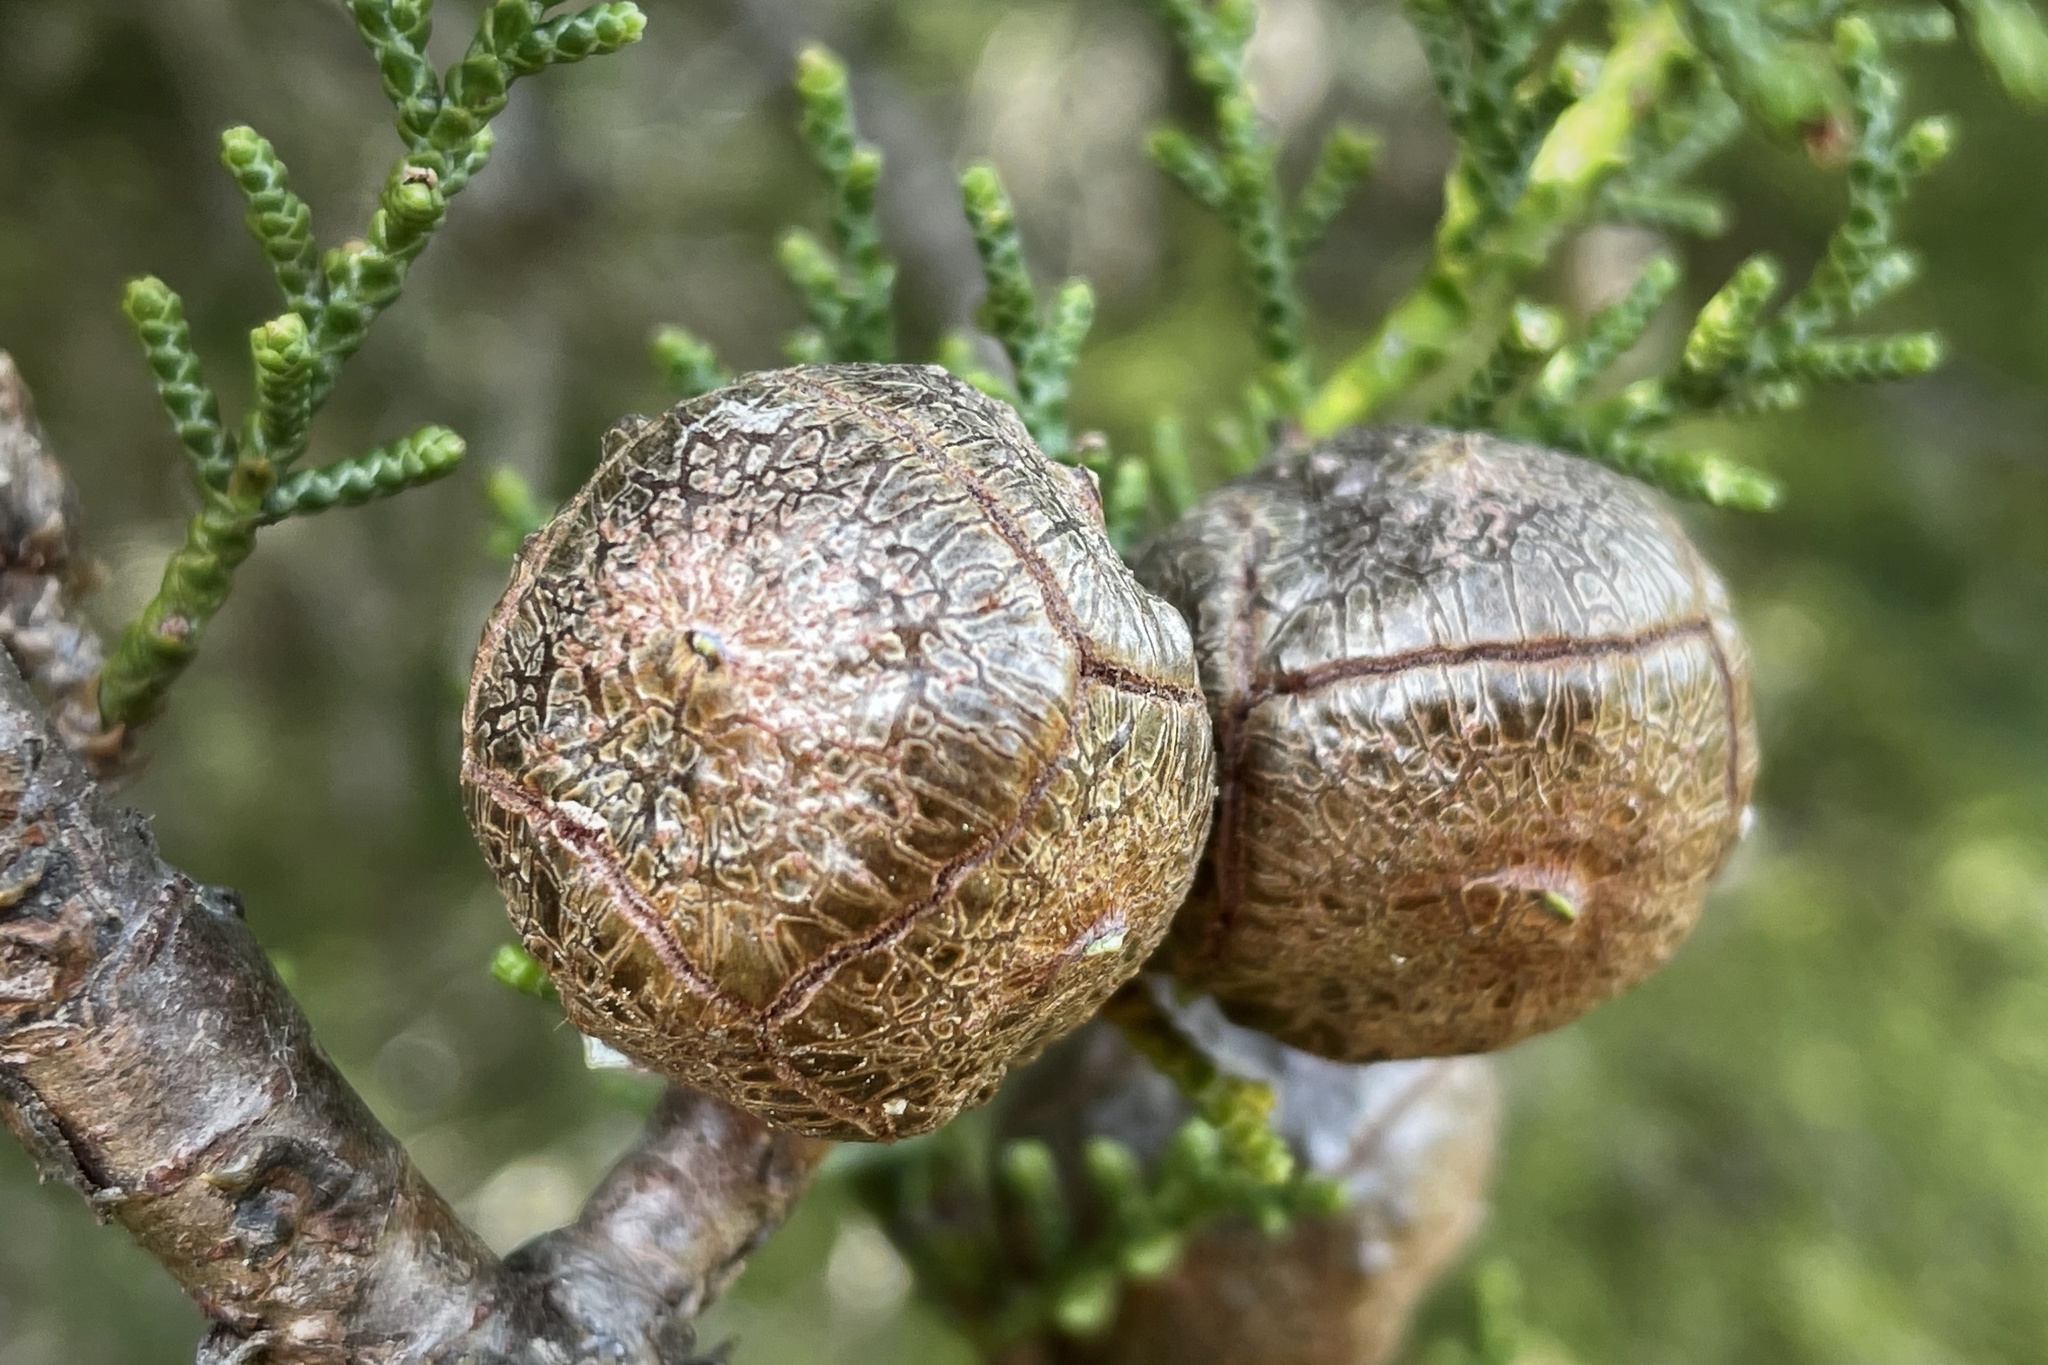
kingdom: Plantae
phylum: Tracheophyta
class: Pinopsida
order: Pinales
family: Cupressaceae
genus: Cupressus
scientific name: Cupressus sargentii
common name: Sargent cypress
